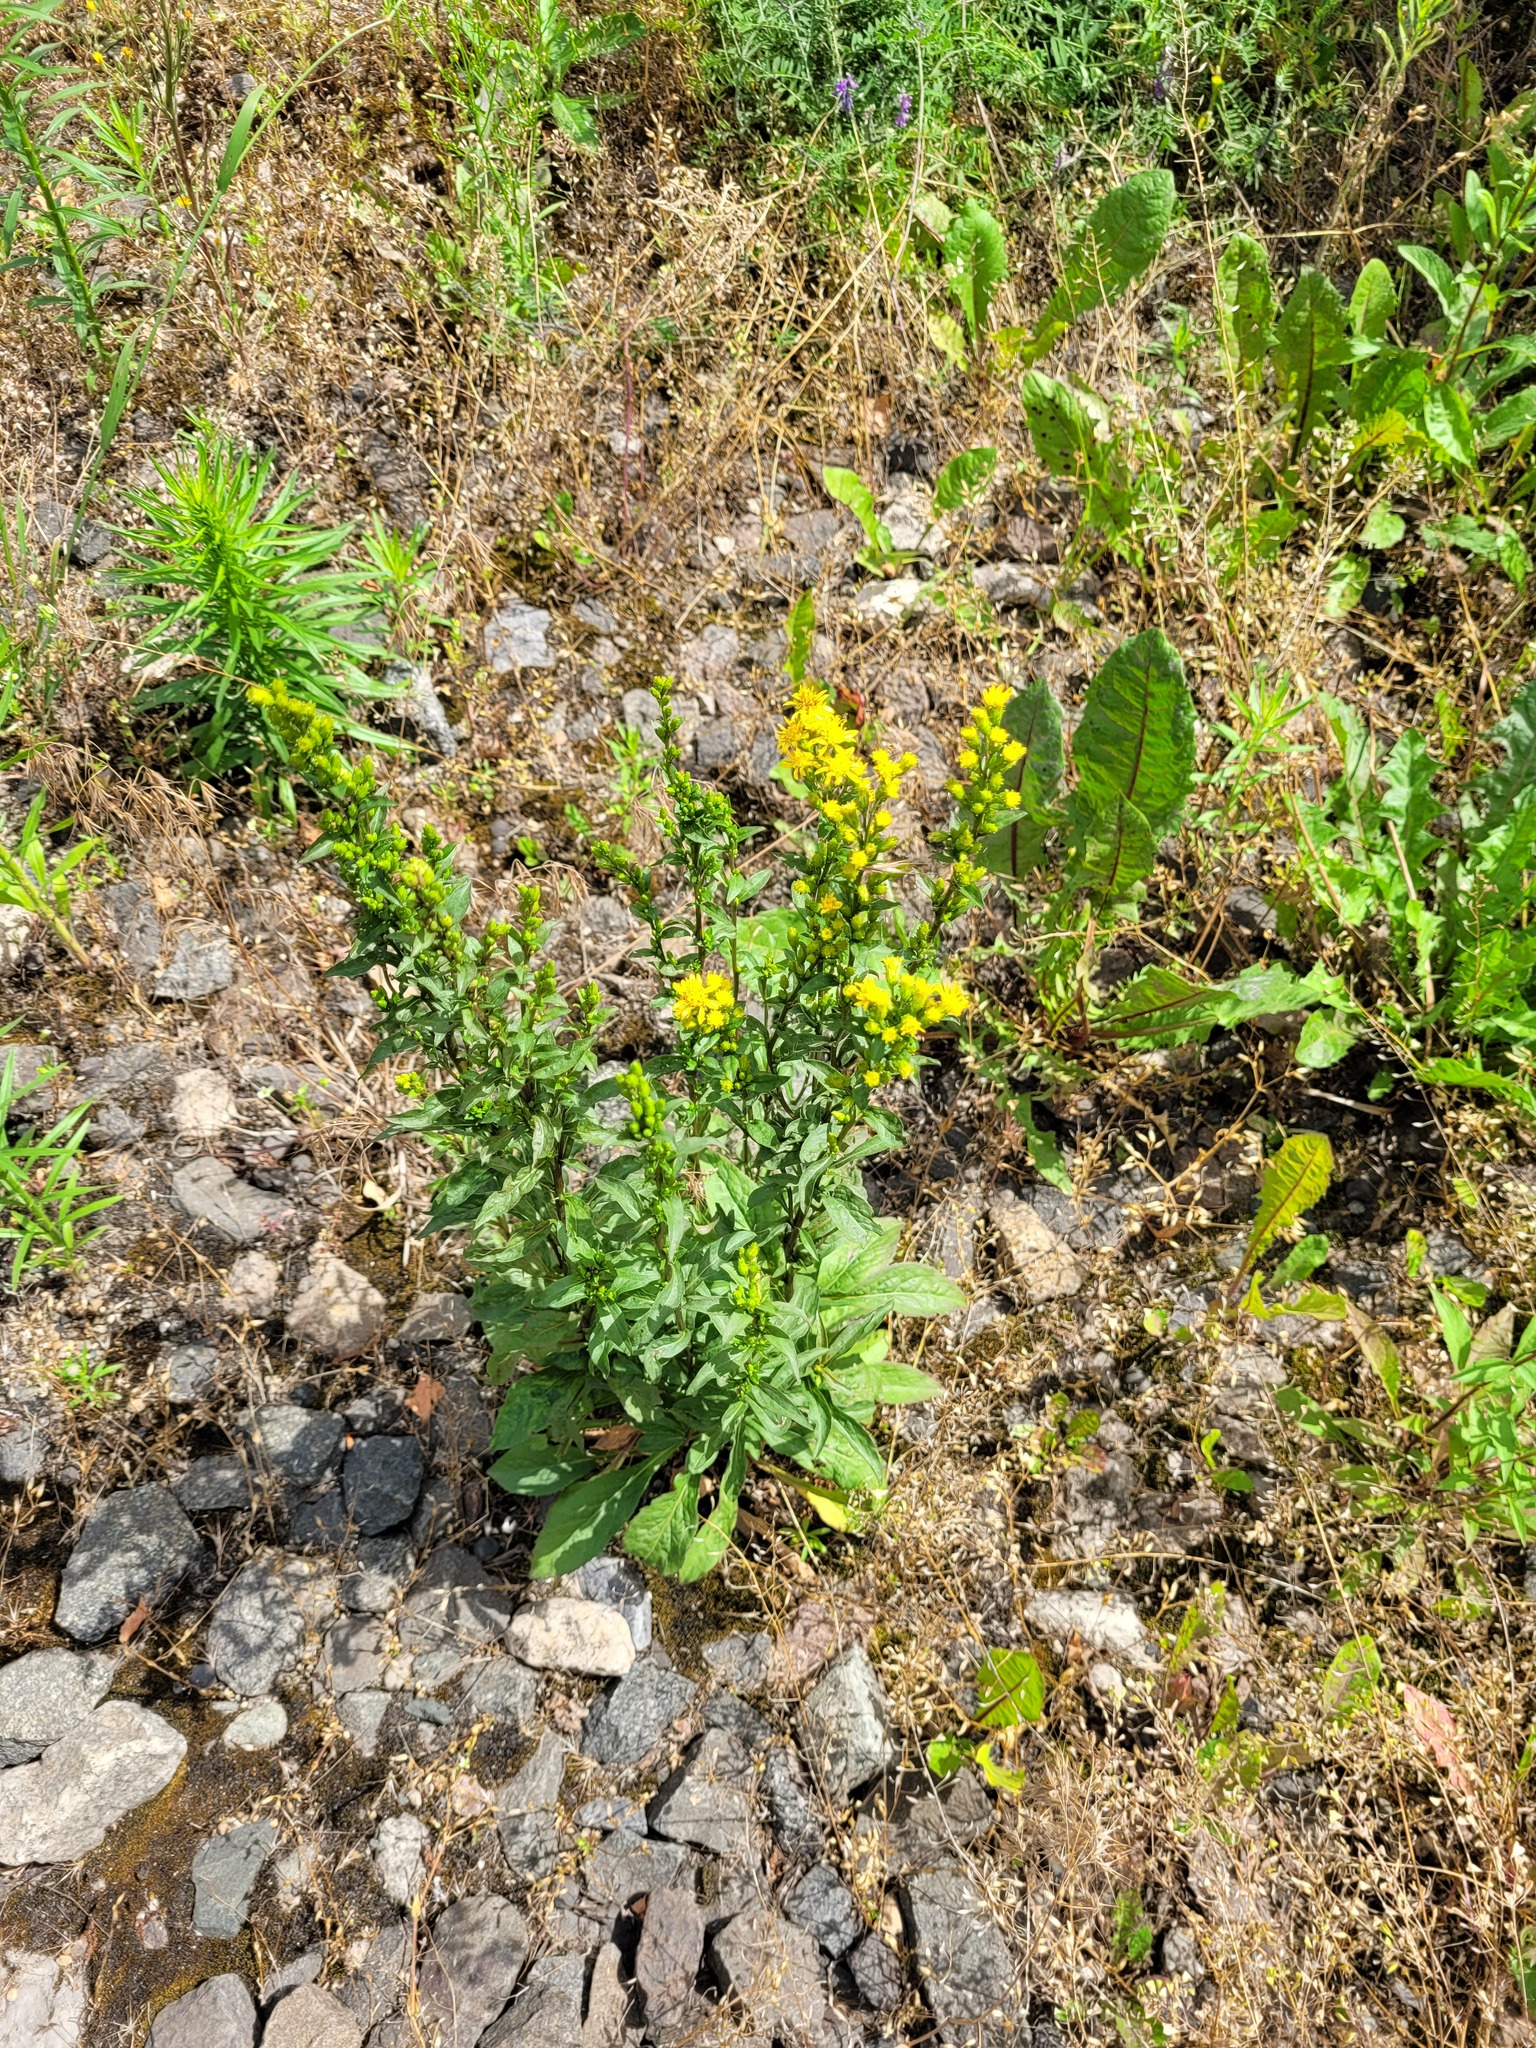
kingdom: Plantae
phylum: Tracheophyta
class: Magnoliopsida
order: Asterales
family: Asteraceae
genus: Solidago
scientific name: Solidago virgaurea
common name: Goldenrod
